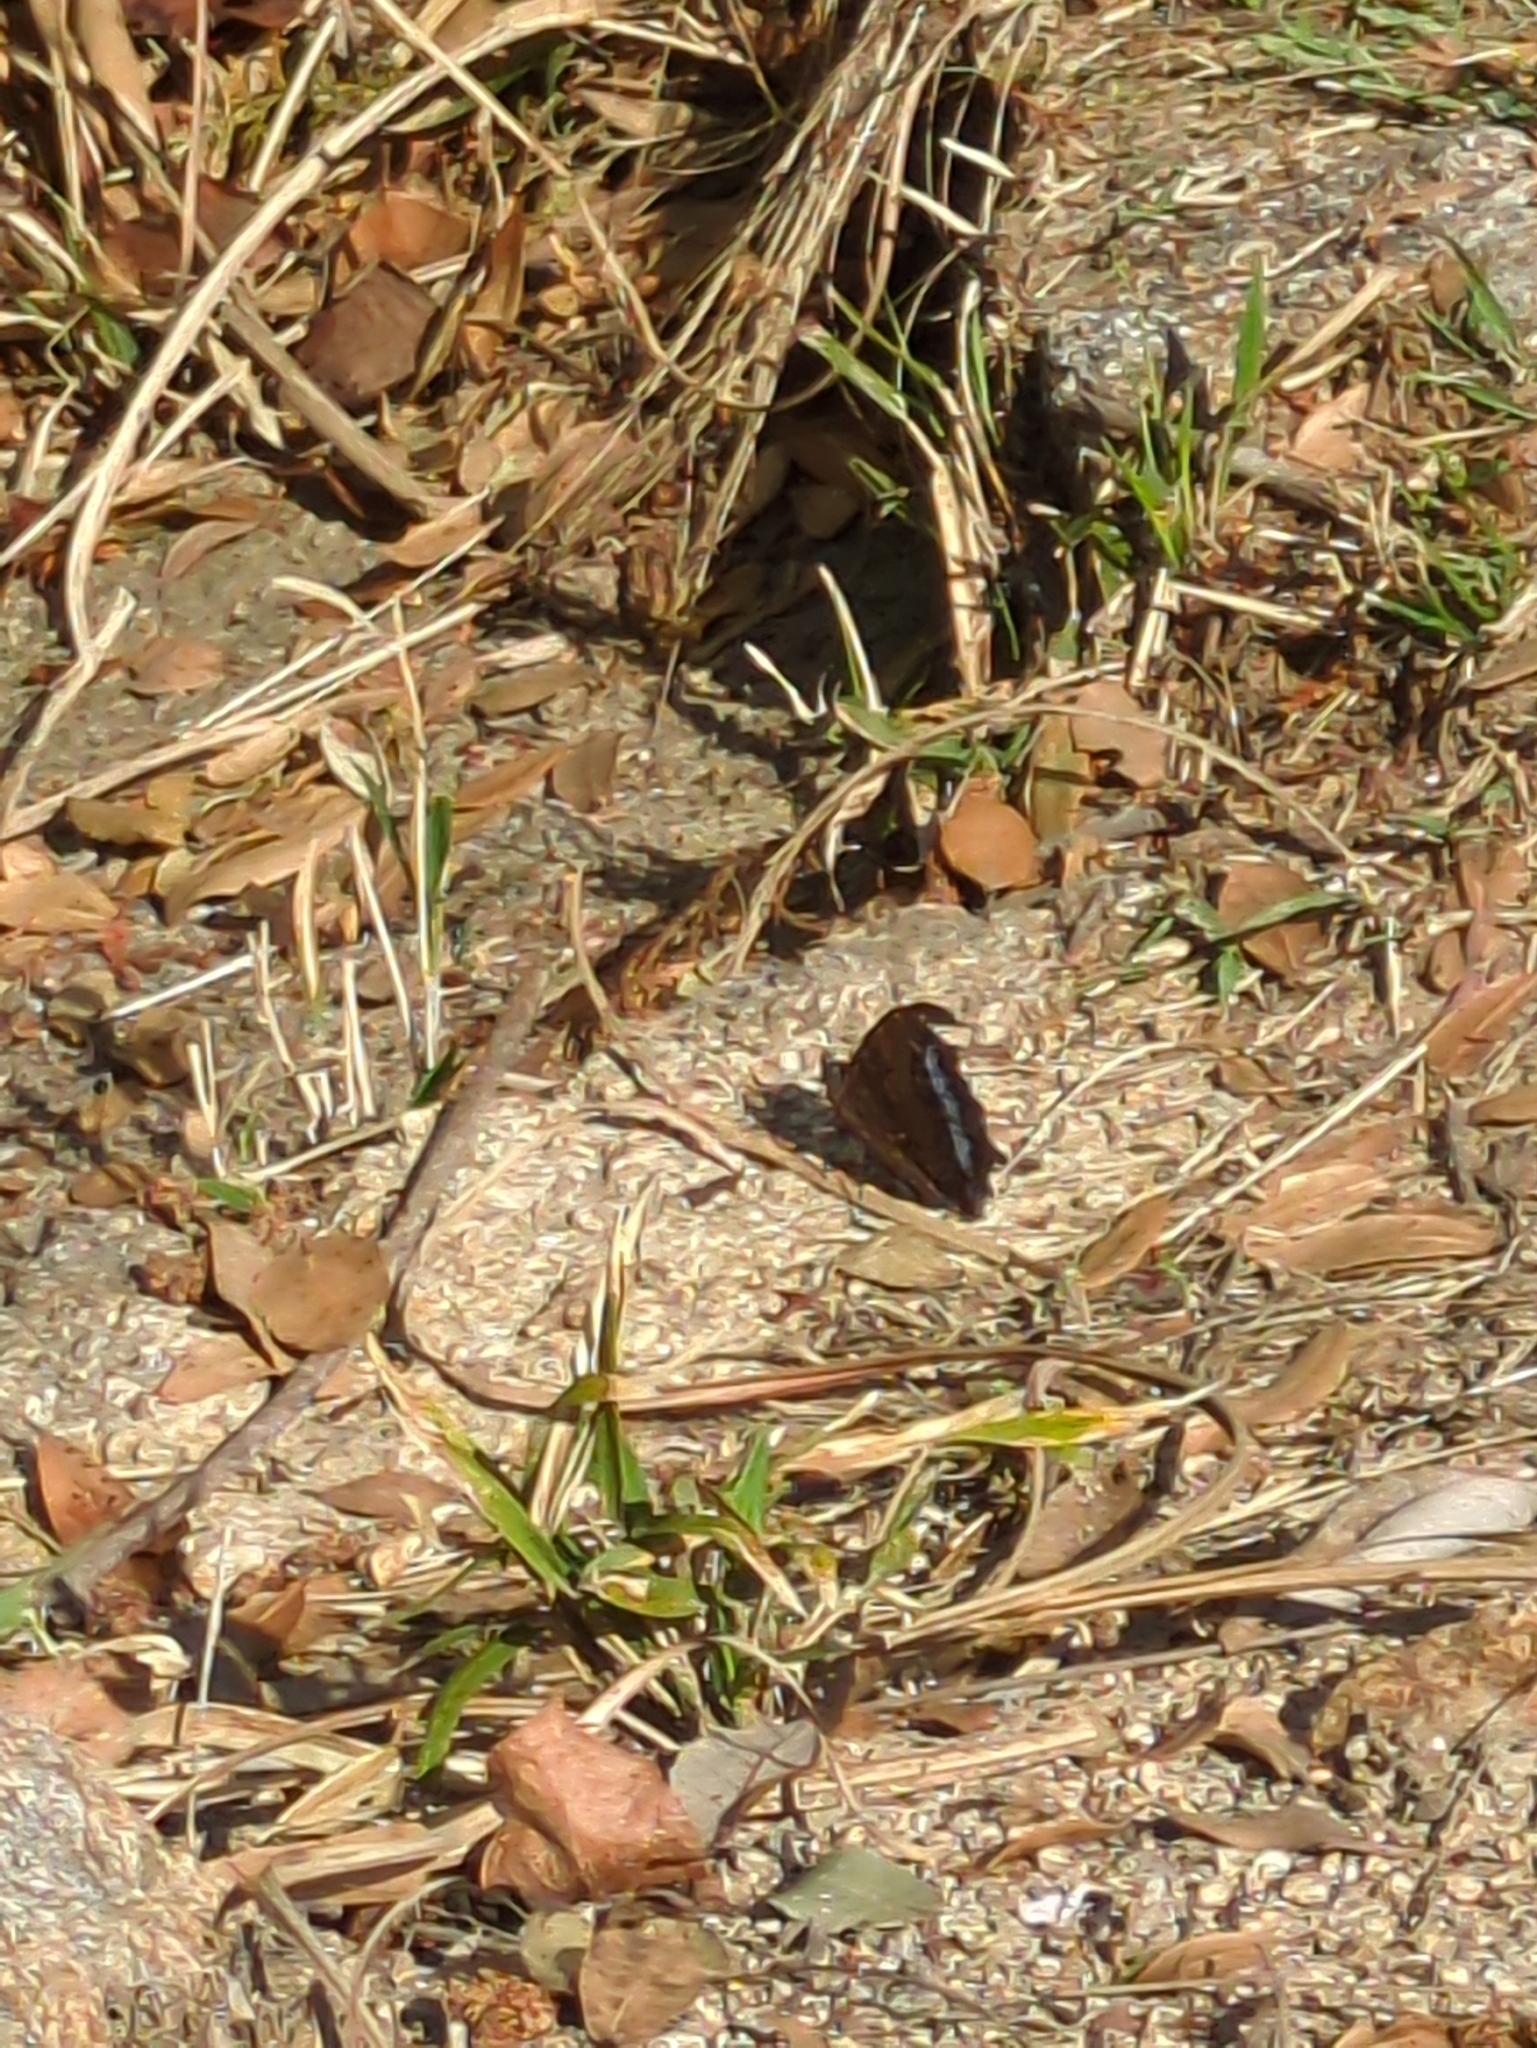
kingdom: Animalia
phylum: Arthropoda
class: Insecta
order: Lepidoptera
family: Nymphalidae
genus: Vanessa
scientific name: Vanessa Kaniska canace
